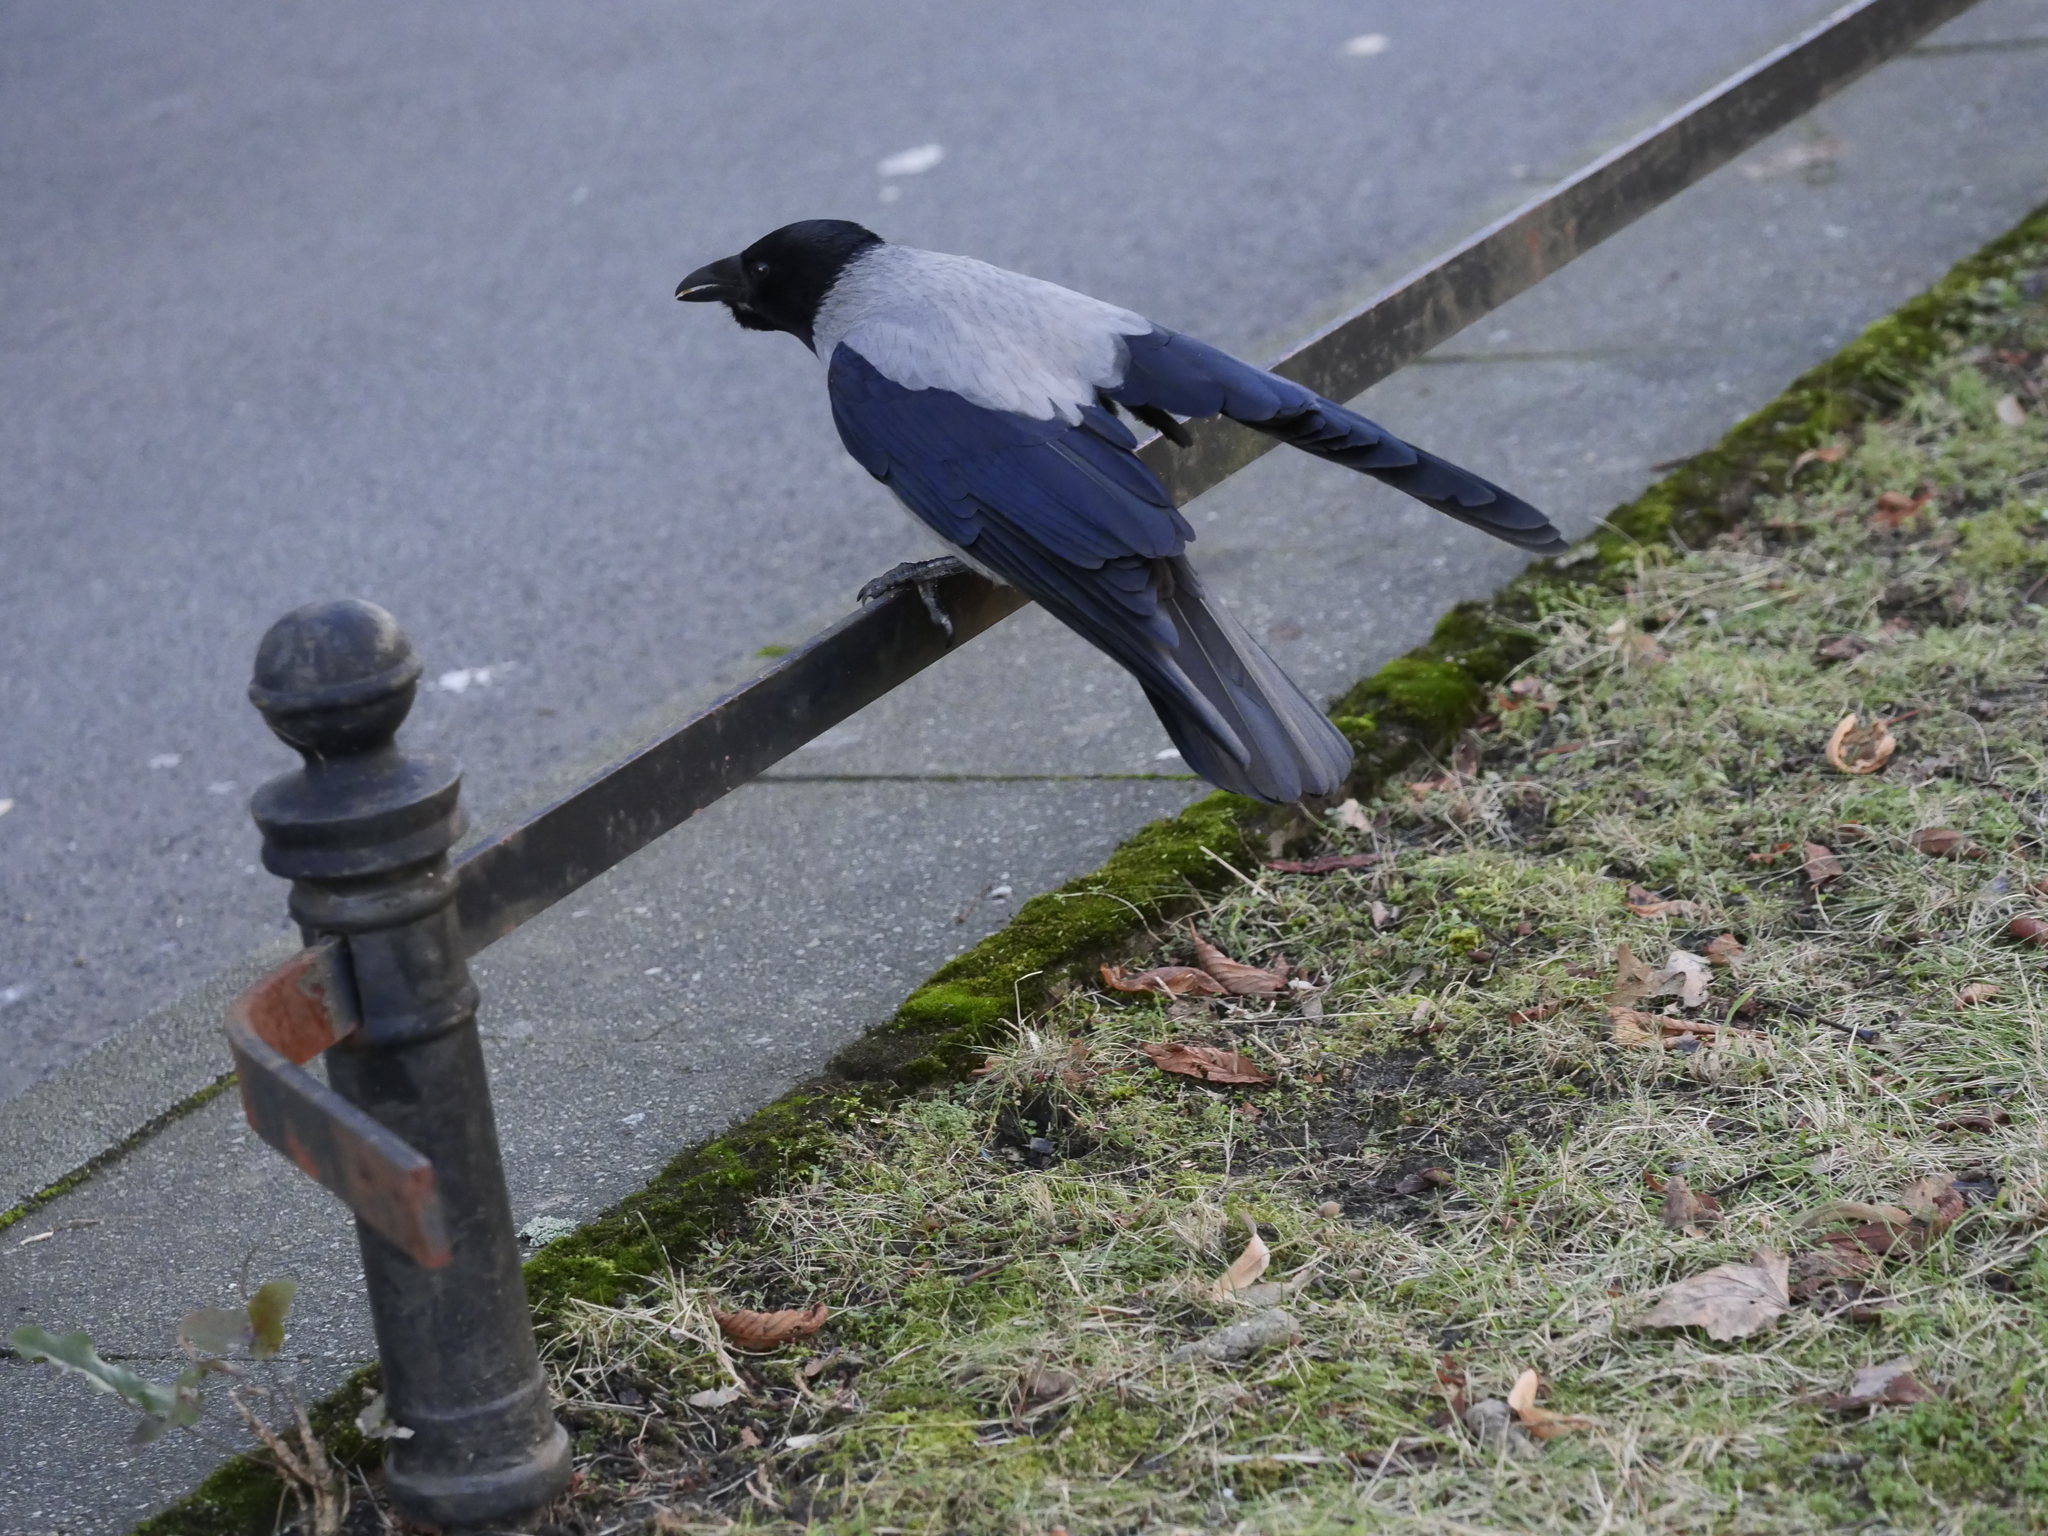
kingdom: Animalia
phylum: Chordata
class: Aves
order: Passeriformes
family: Corvidae
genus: Corvus
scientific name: Corvus cornix
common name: Hooded crow
